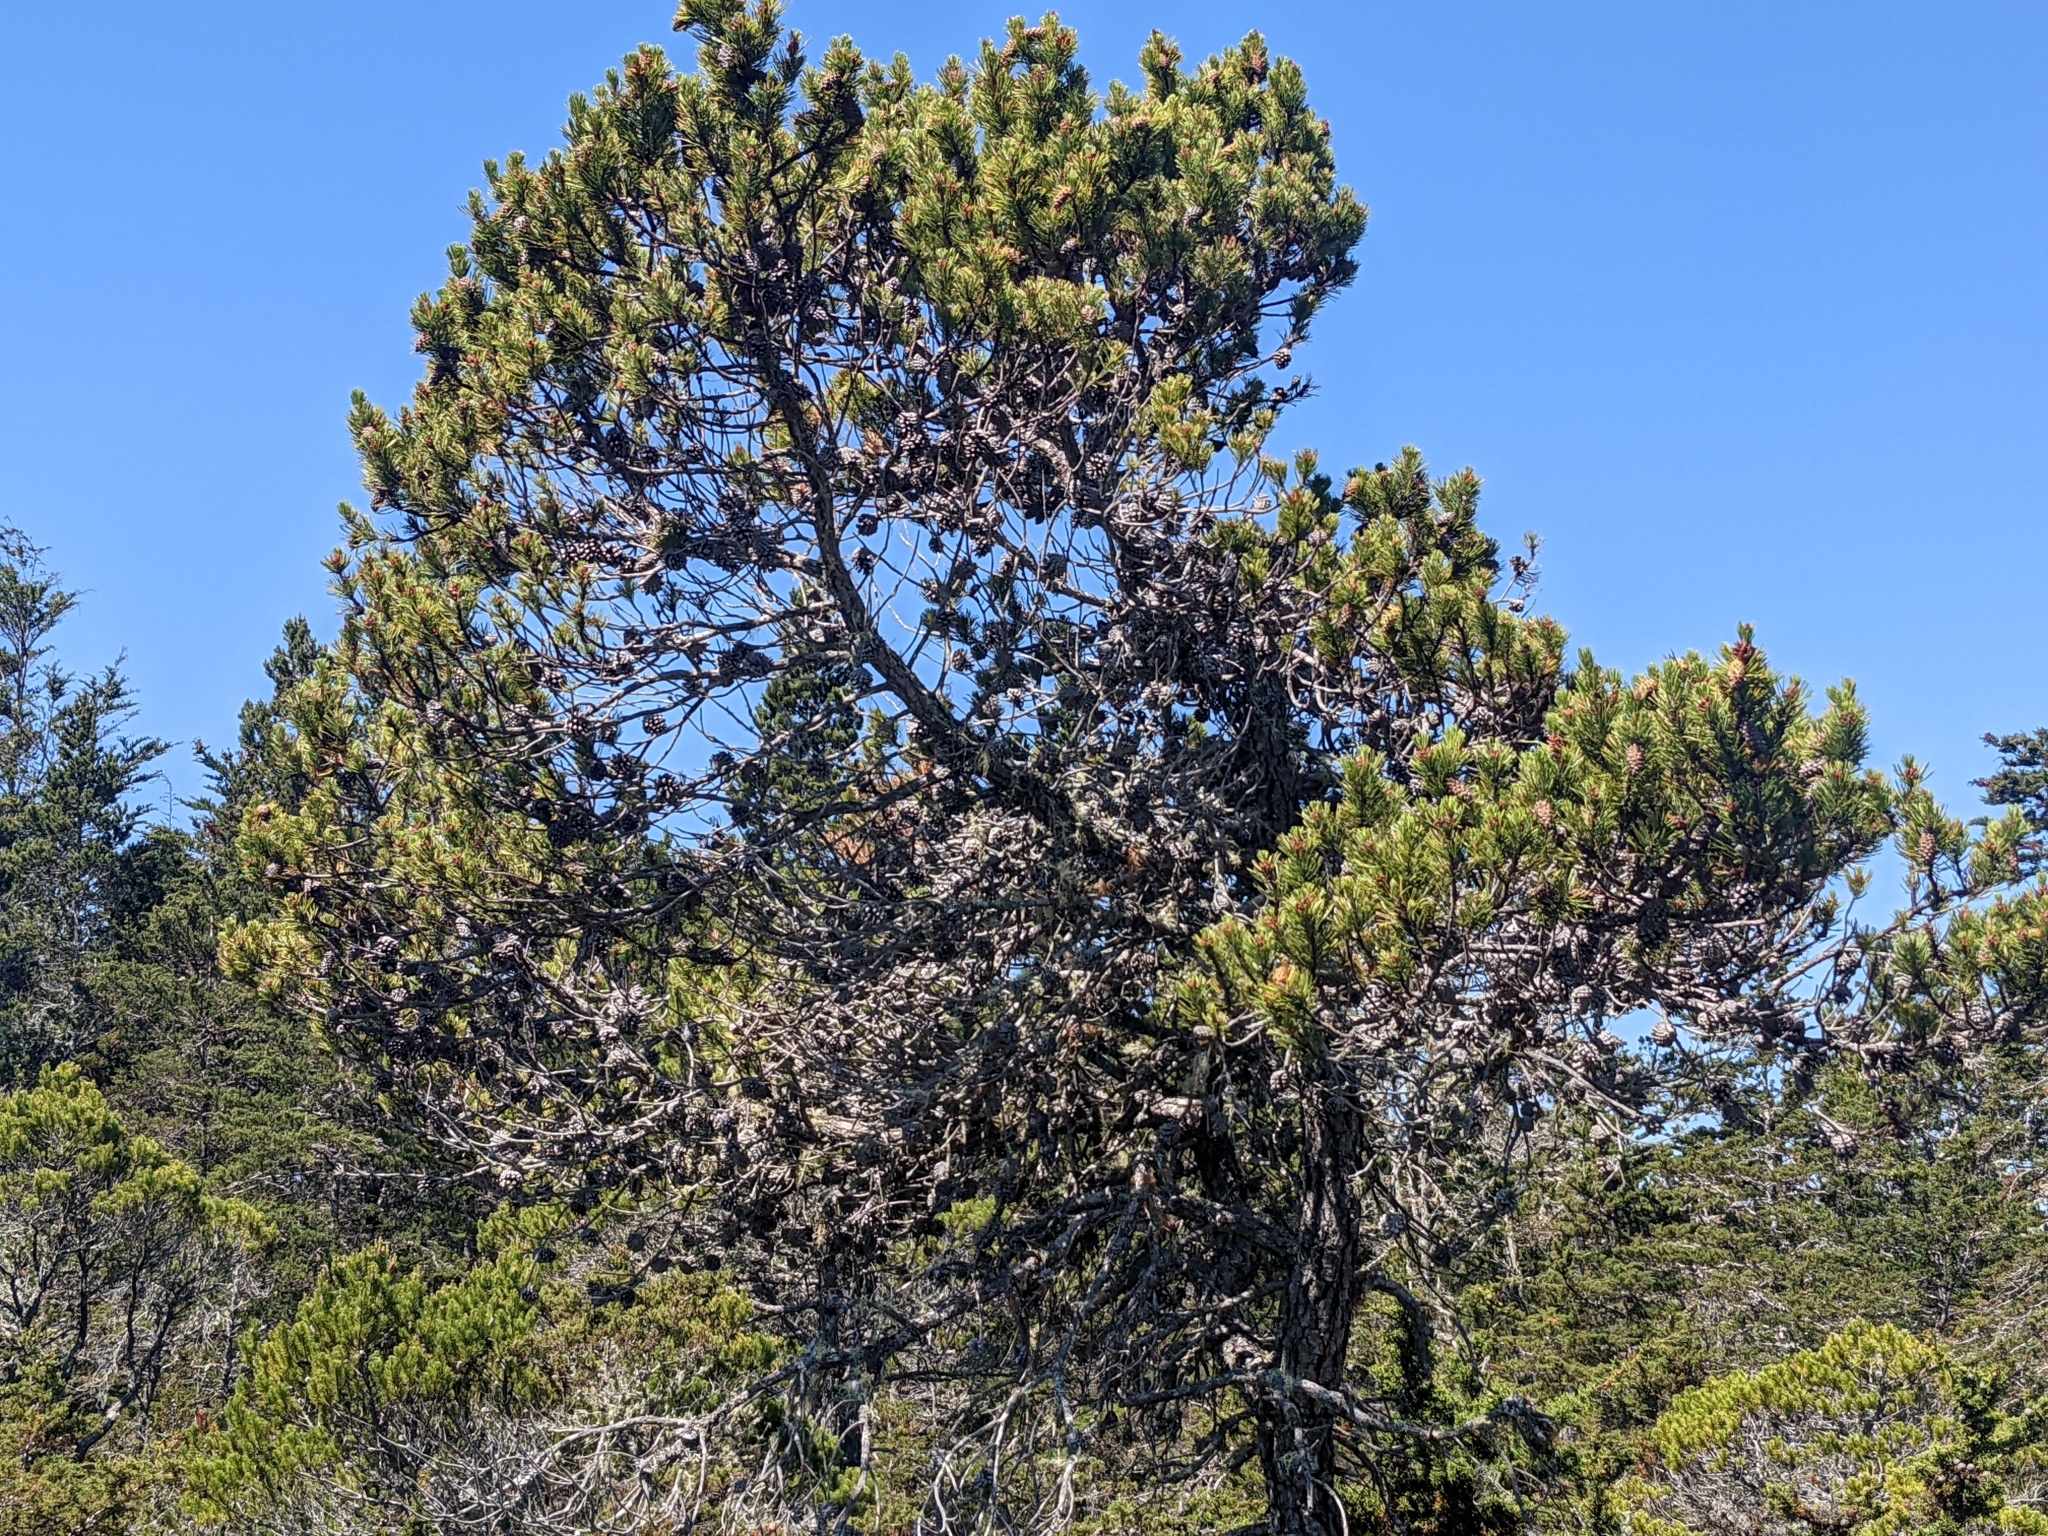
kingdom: Plantae
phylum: Tracheophyta
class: Pinopsida
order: Pinales
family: Pinaceae
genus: Pinus
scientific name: Pinus contorta
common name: Lodgepole pine
